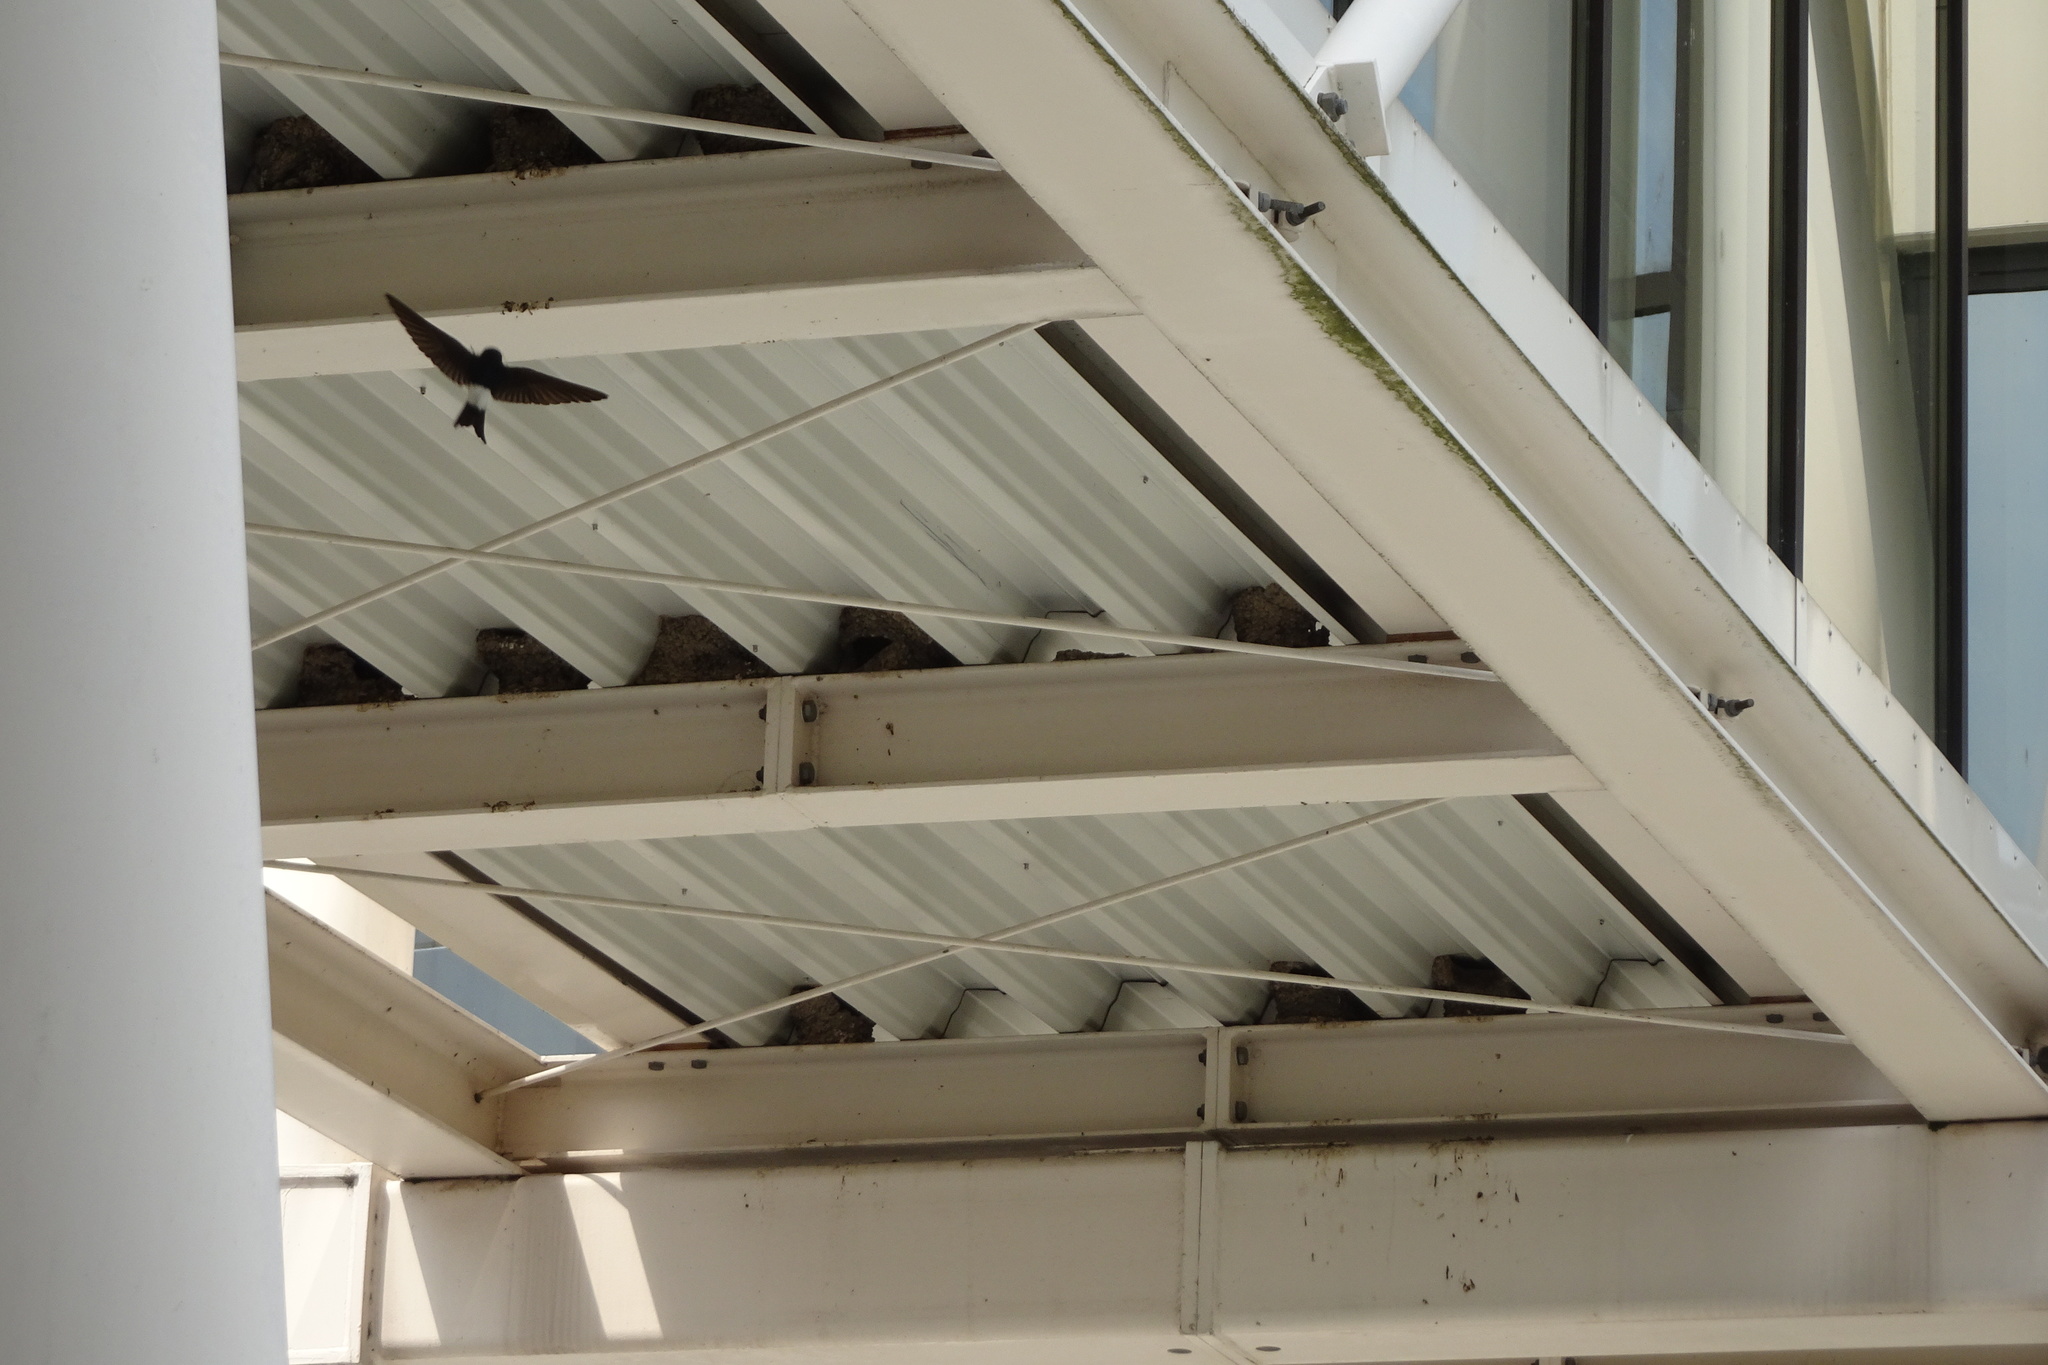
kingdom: Animalia
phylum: Chordata
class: Aves
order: Passeriformes
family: Hirundinidae
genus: Delichon
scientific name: Delichon urbicum
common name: Common house martin
